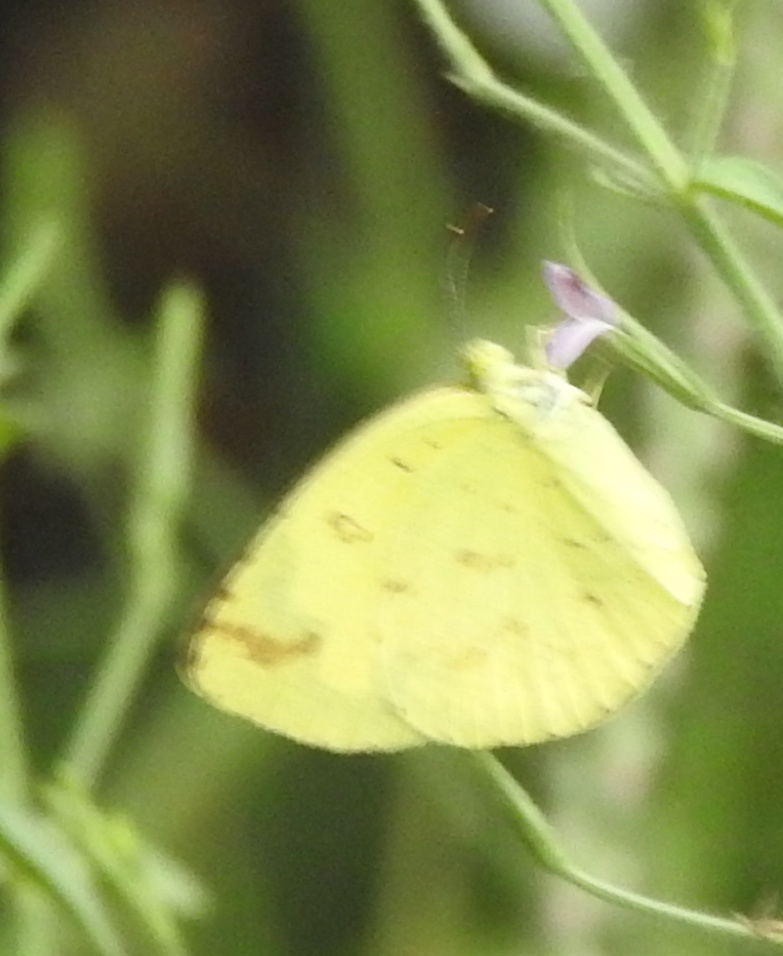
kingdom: Animalia
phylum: Arthropoda
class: Insecta
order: Lepidoptera
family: Pieridae
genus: Eurema
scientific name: Eurema hecabe
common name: Pale grass yellow
